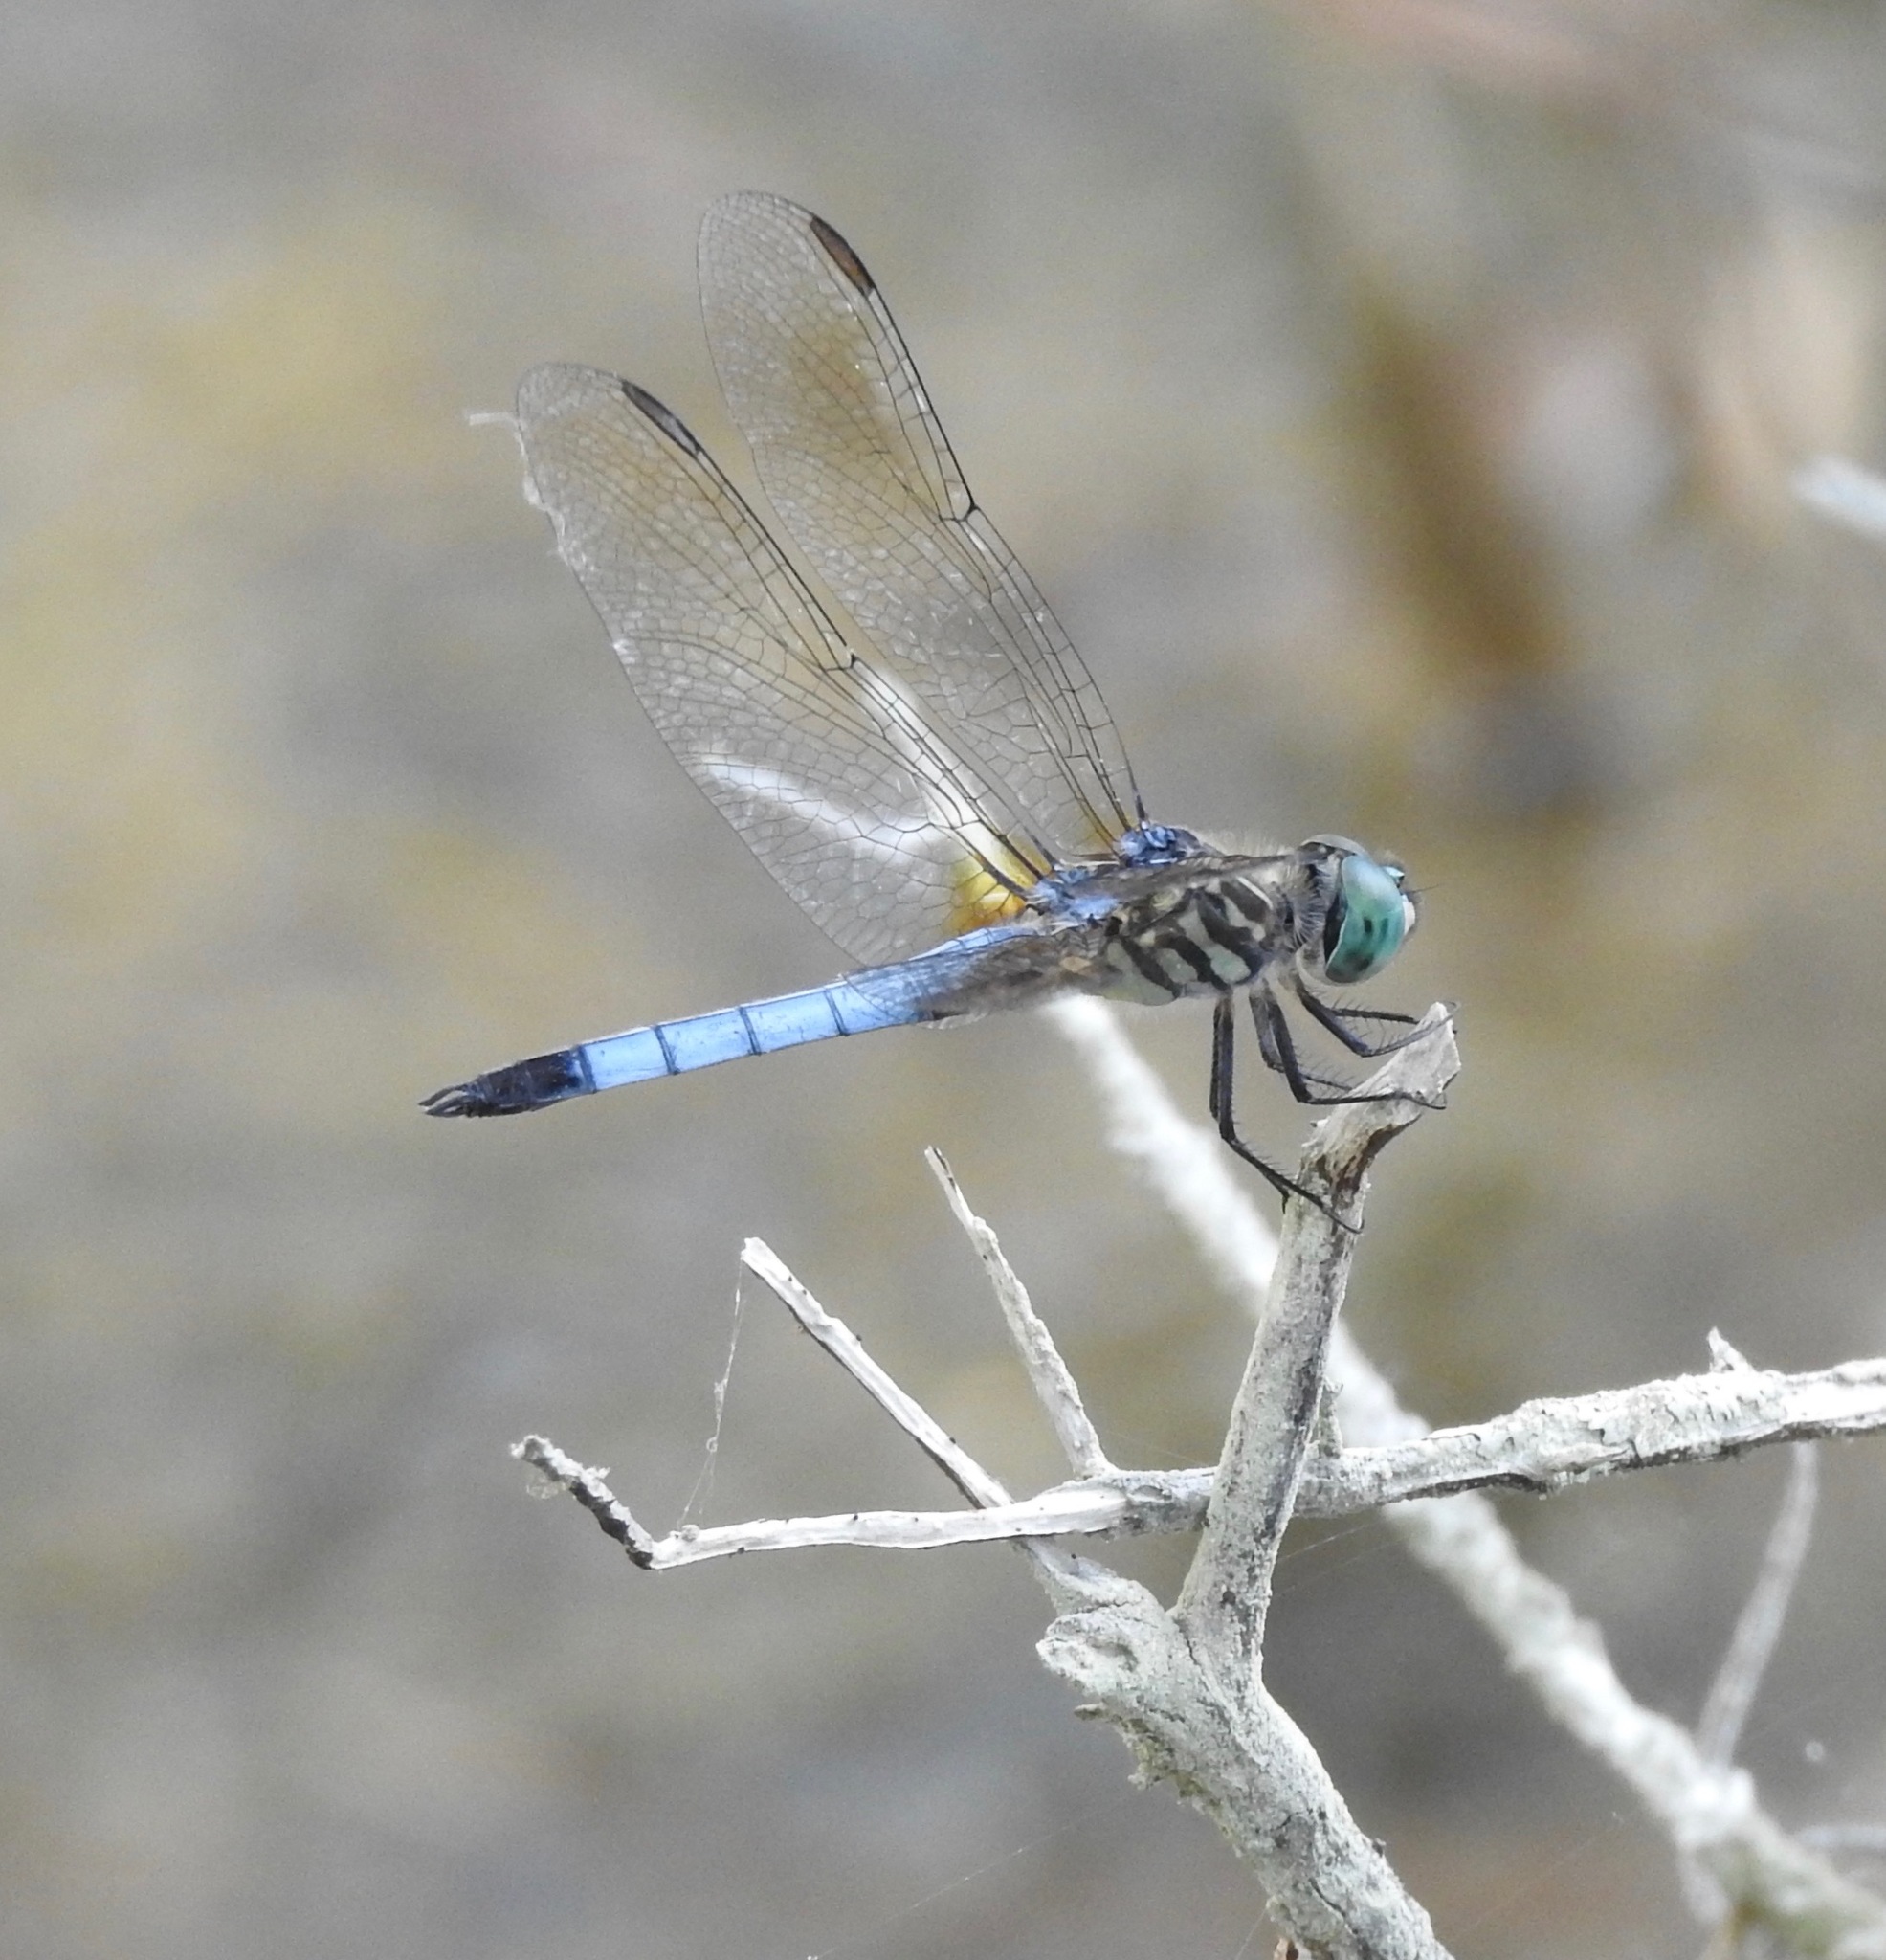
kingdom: Animalia
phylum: Arthropoda
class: Insecta
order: Odonata
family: Libellulidae
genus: Pachydiplax
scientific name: Pachydiplax longipennis
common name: Blue dasher
